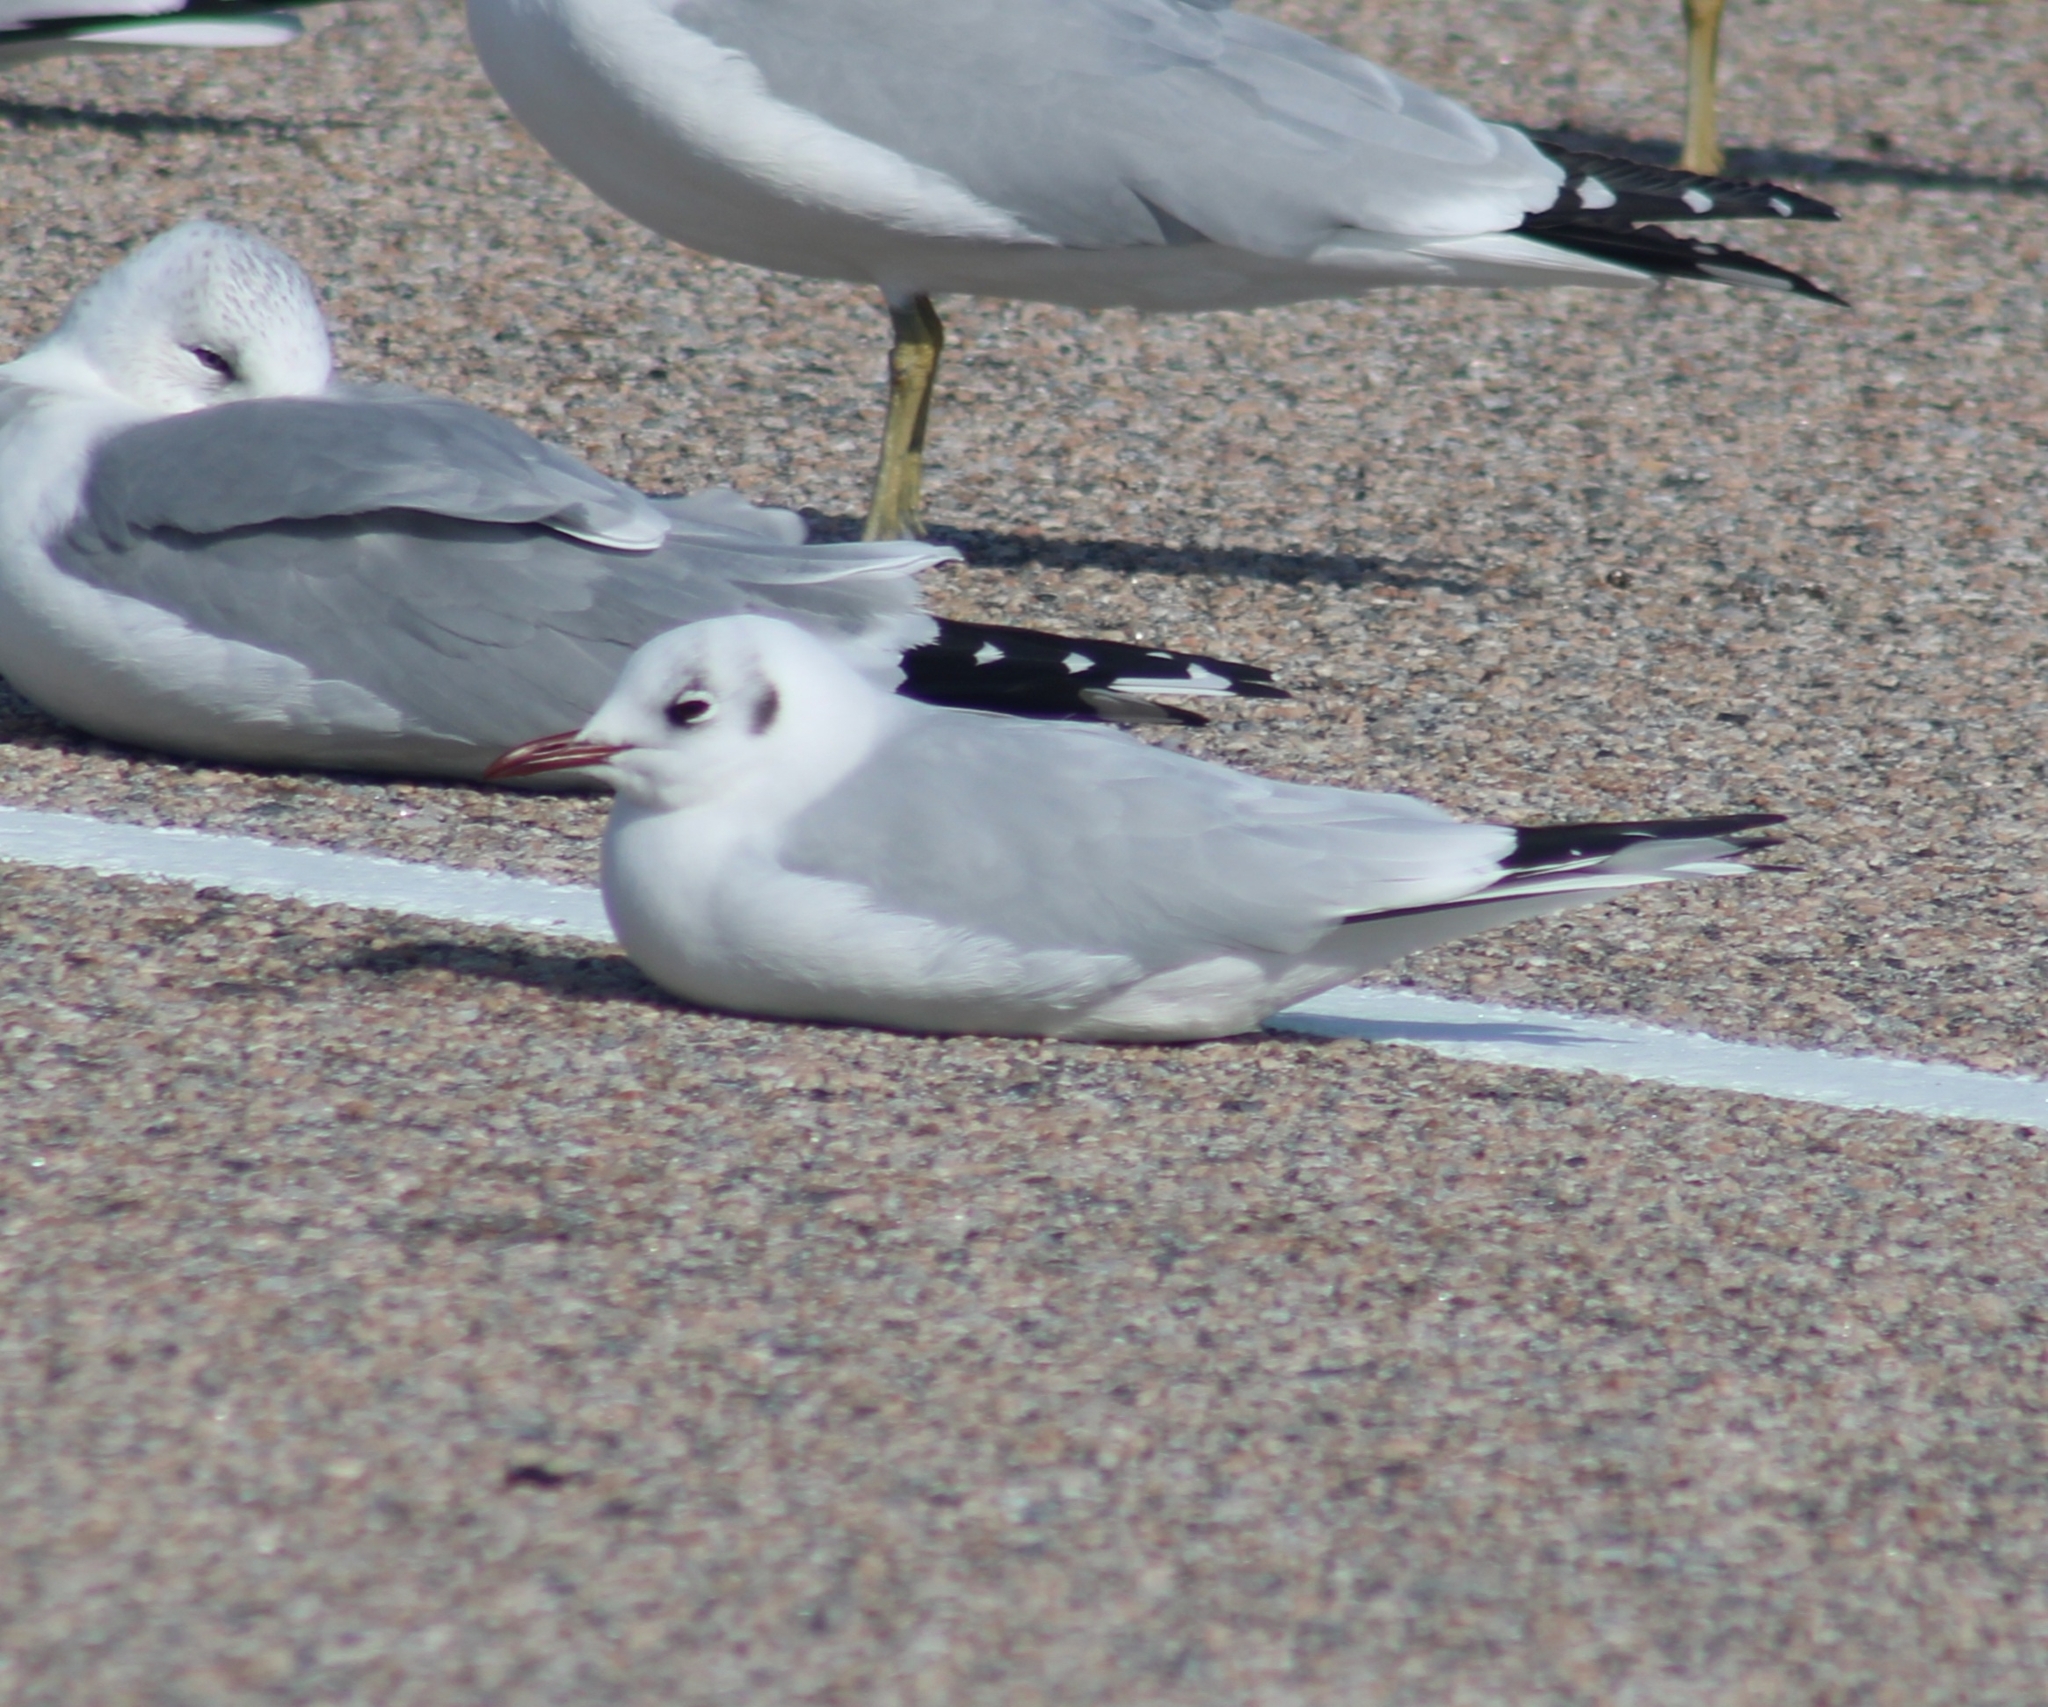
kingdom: Animalia
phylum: Chordata
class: Aves
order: Charadriiformes
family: Laridae
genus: Chroicocephalus
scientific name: Chroicocephalus ridibundus
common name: Black-headed gull
